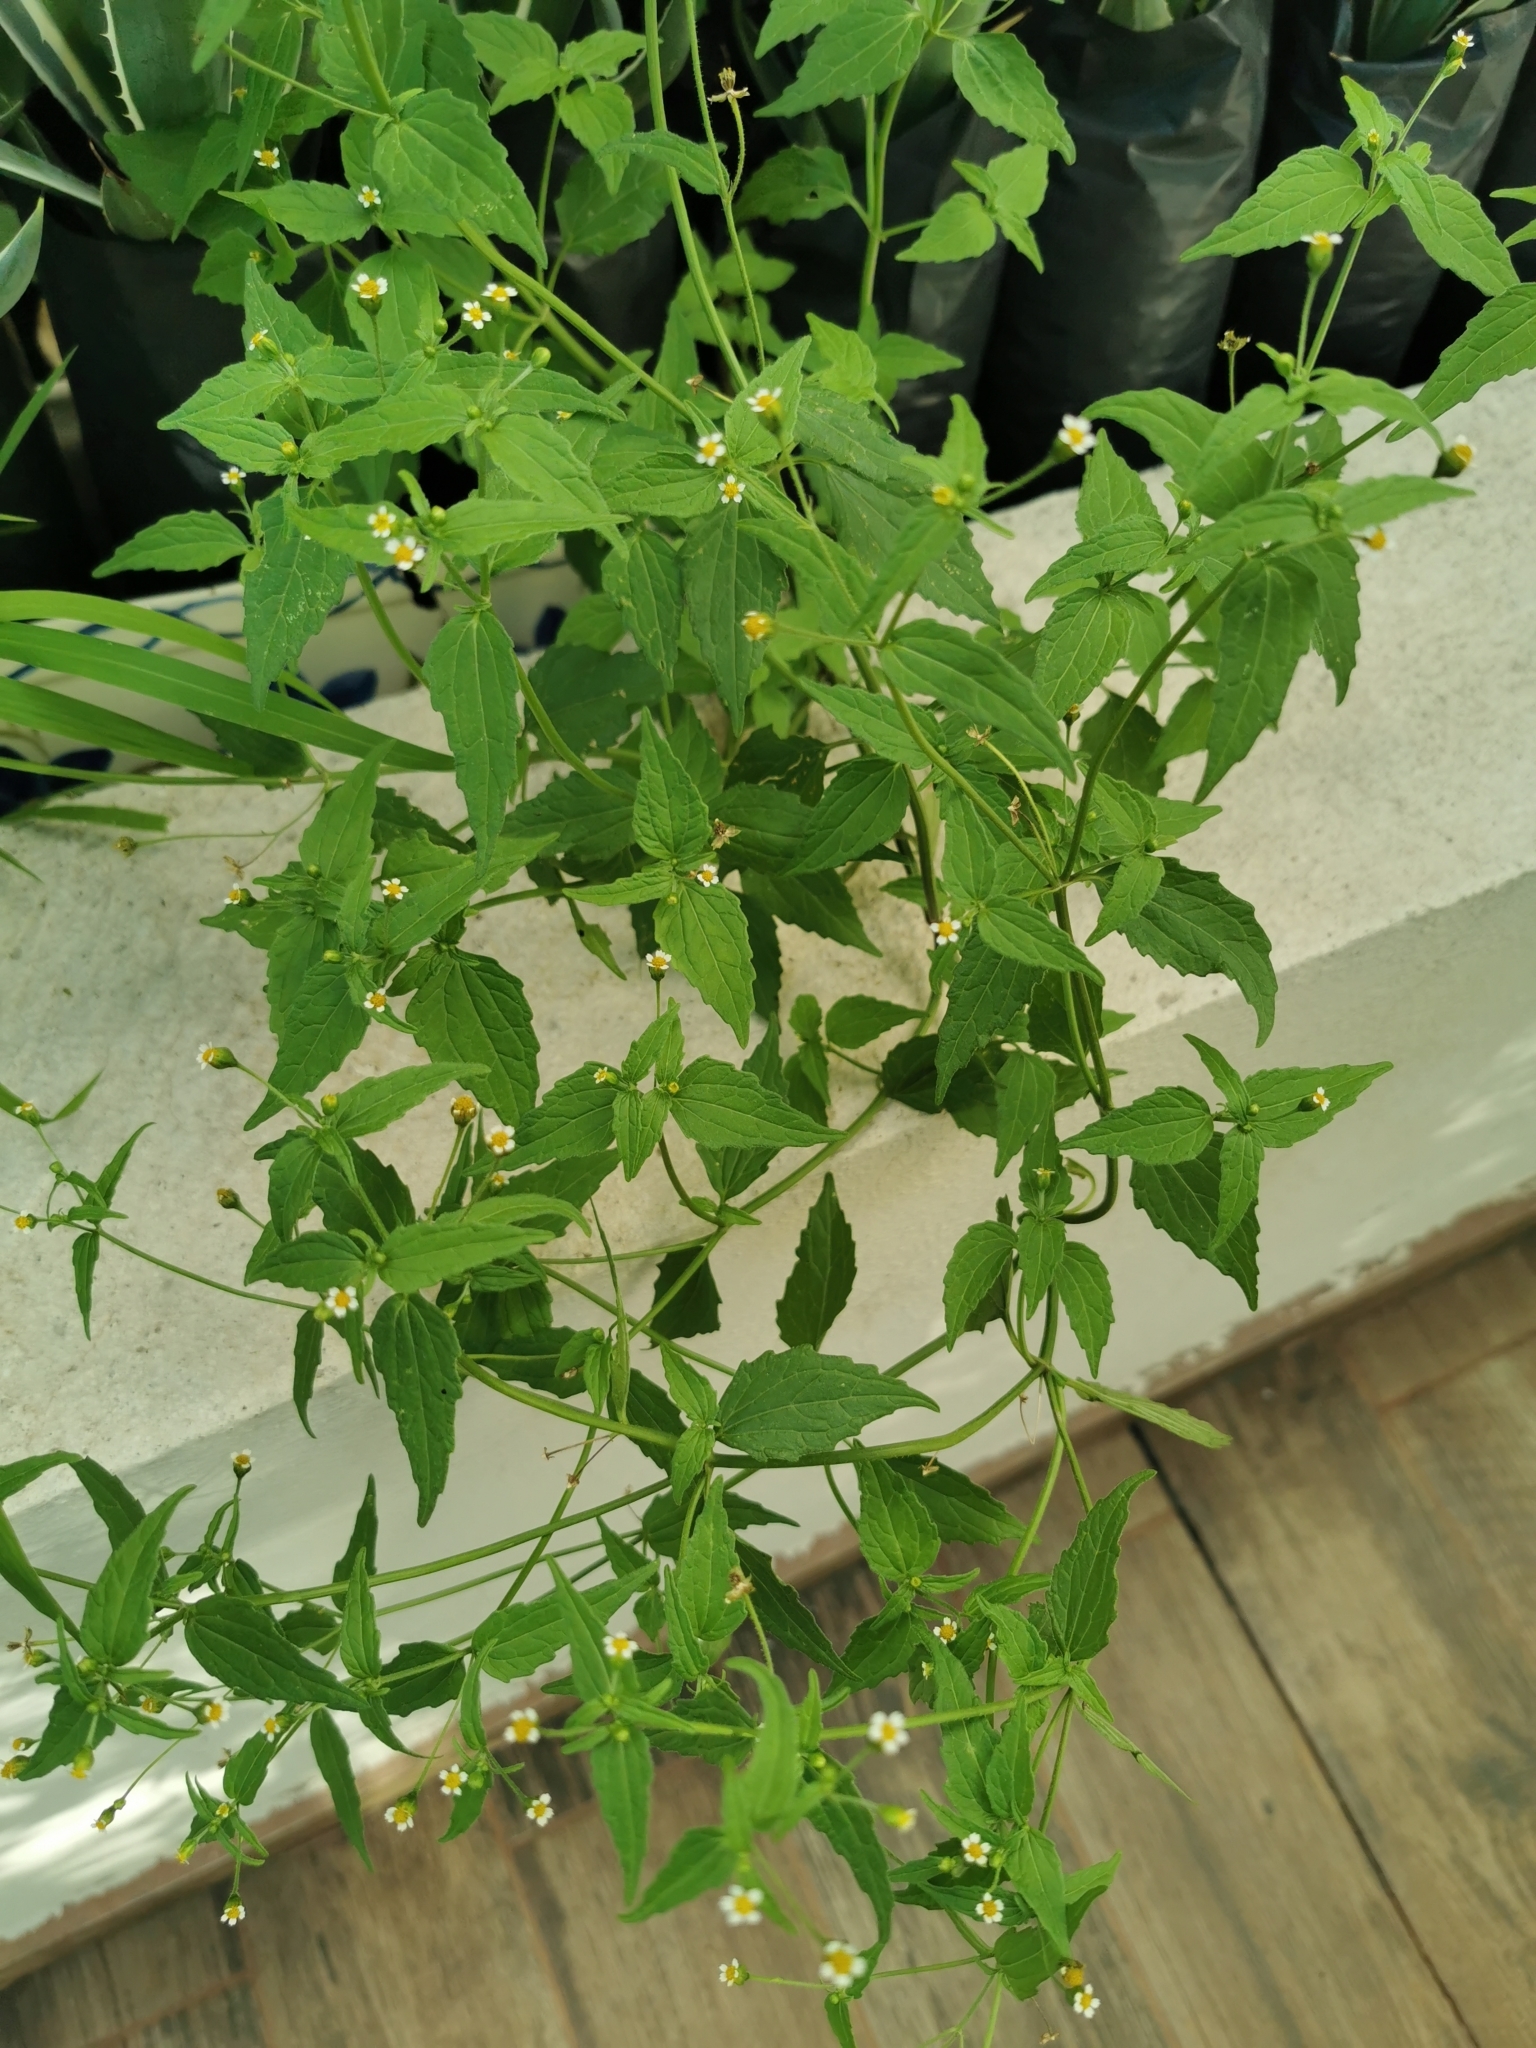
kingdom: Plantae
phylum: Tracheophyta
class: Magnoliopsida
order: Asterales
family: Asteraceae
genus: Galinsoga
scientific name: Galinsoga parviflora
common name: Gallant soldier
